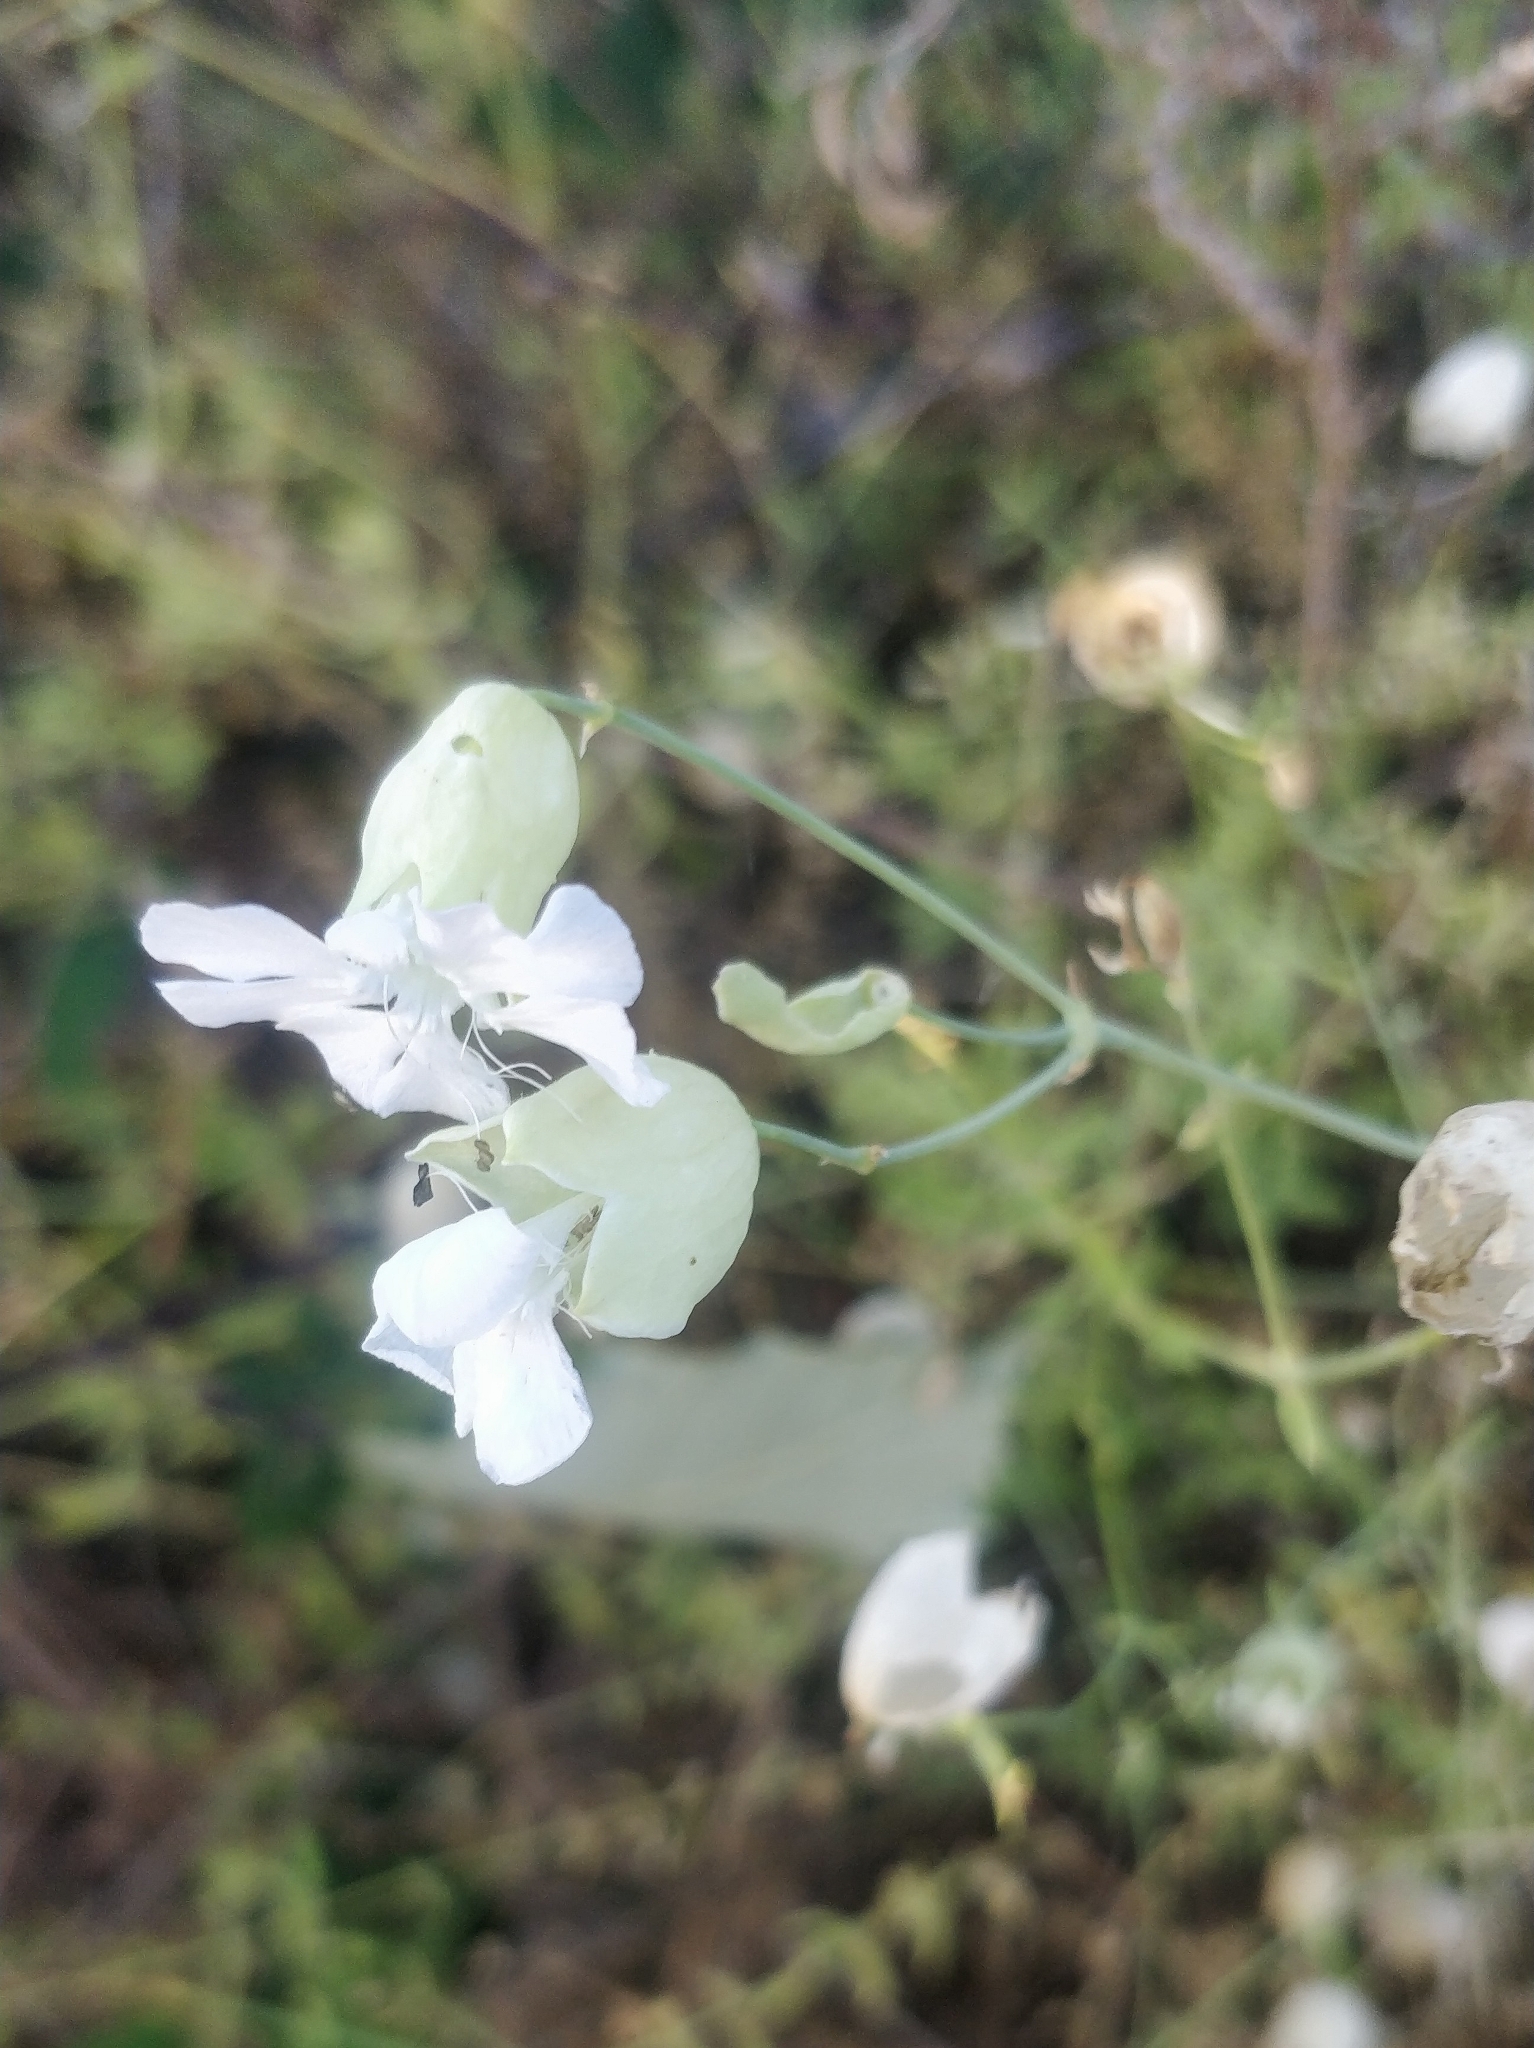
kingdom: Plantae
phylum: Tracheophyta
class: Magnoliopsida
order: Caryophyllales
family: Caryophyllaceae
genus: Silene
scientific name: Silene uniflora
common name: Sea campion
